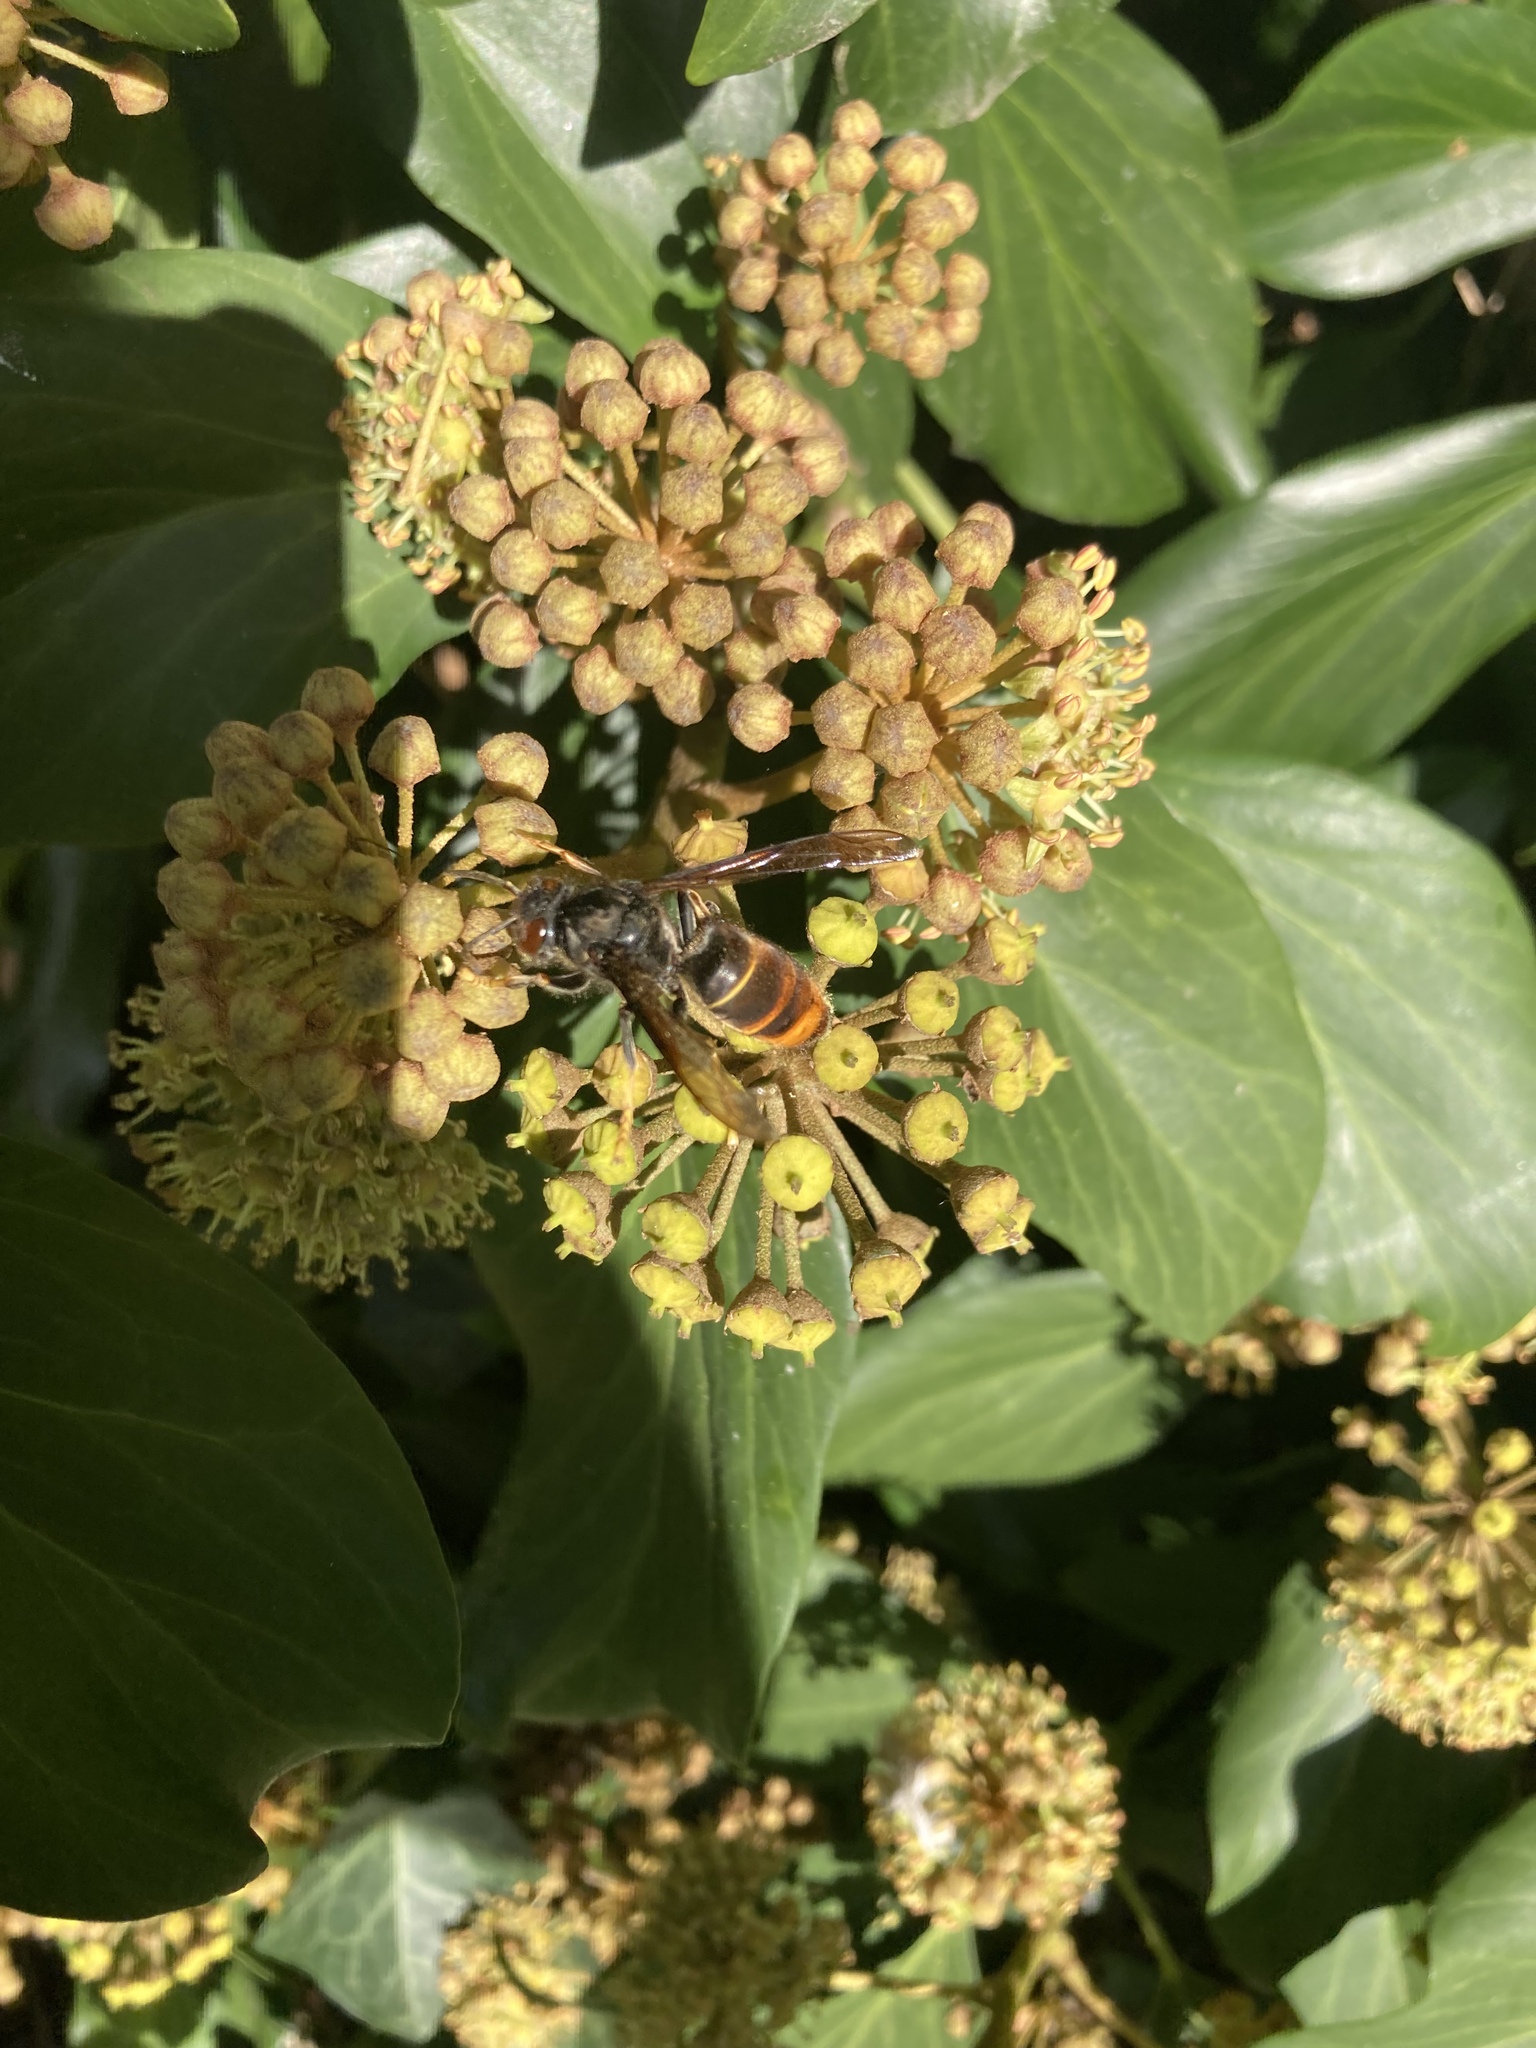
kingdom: Animalia
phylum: Arthropoda
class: Insecta
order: Hymenoptera
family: Vespidae
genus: Vespa
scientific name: Vespa velutina
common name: Asian hornet
